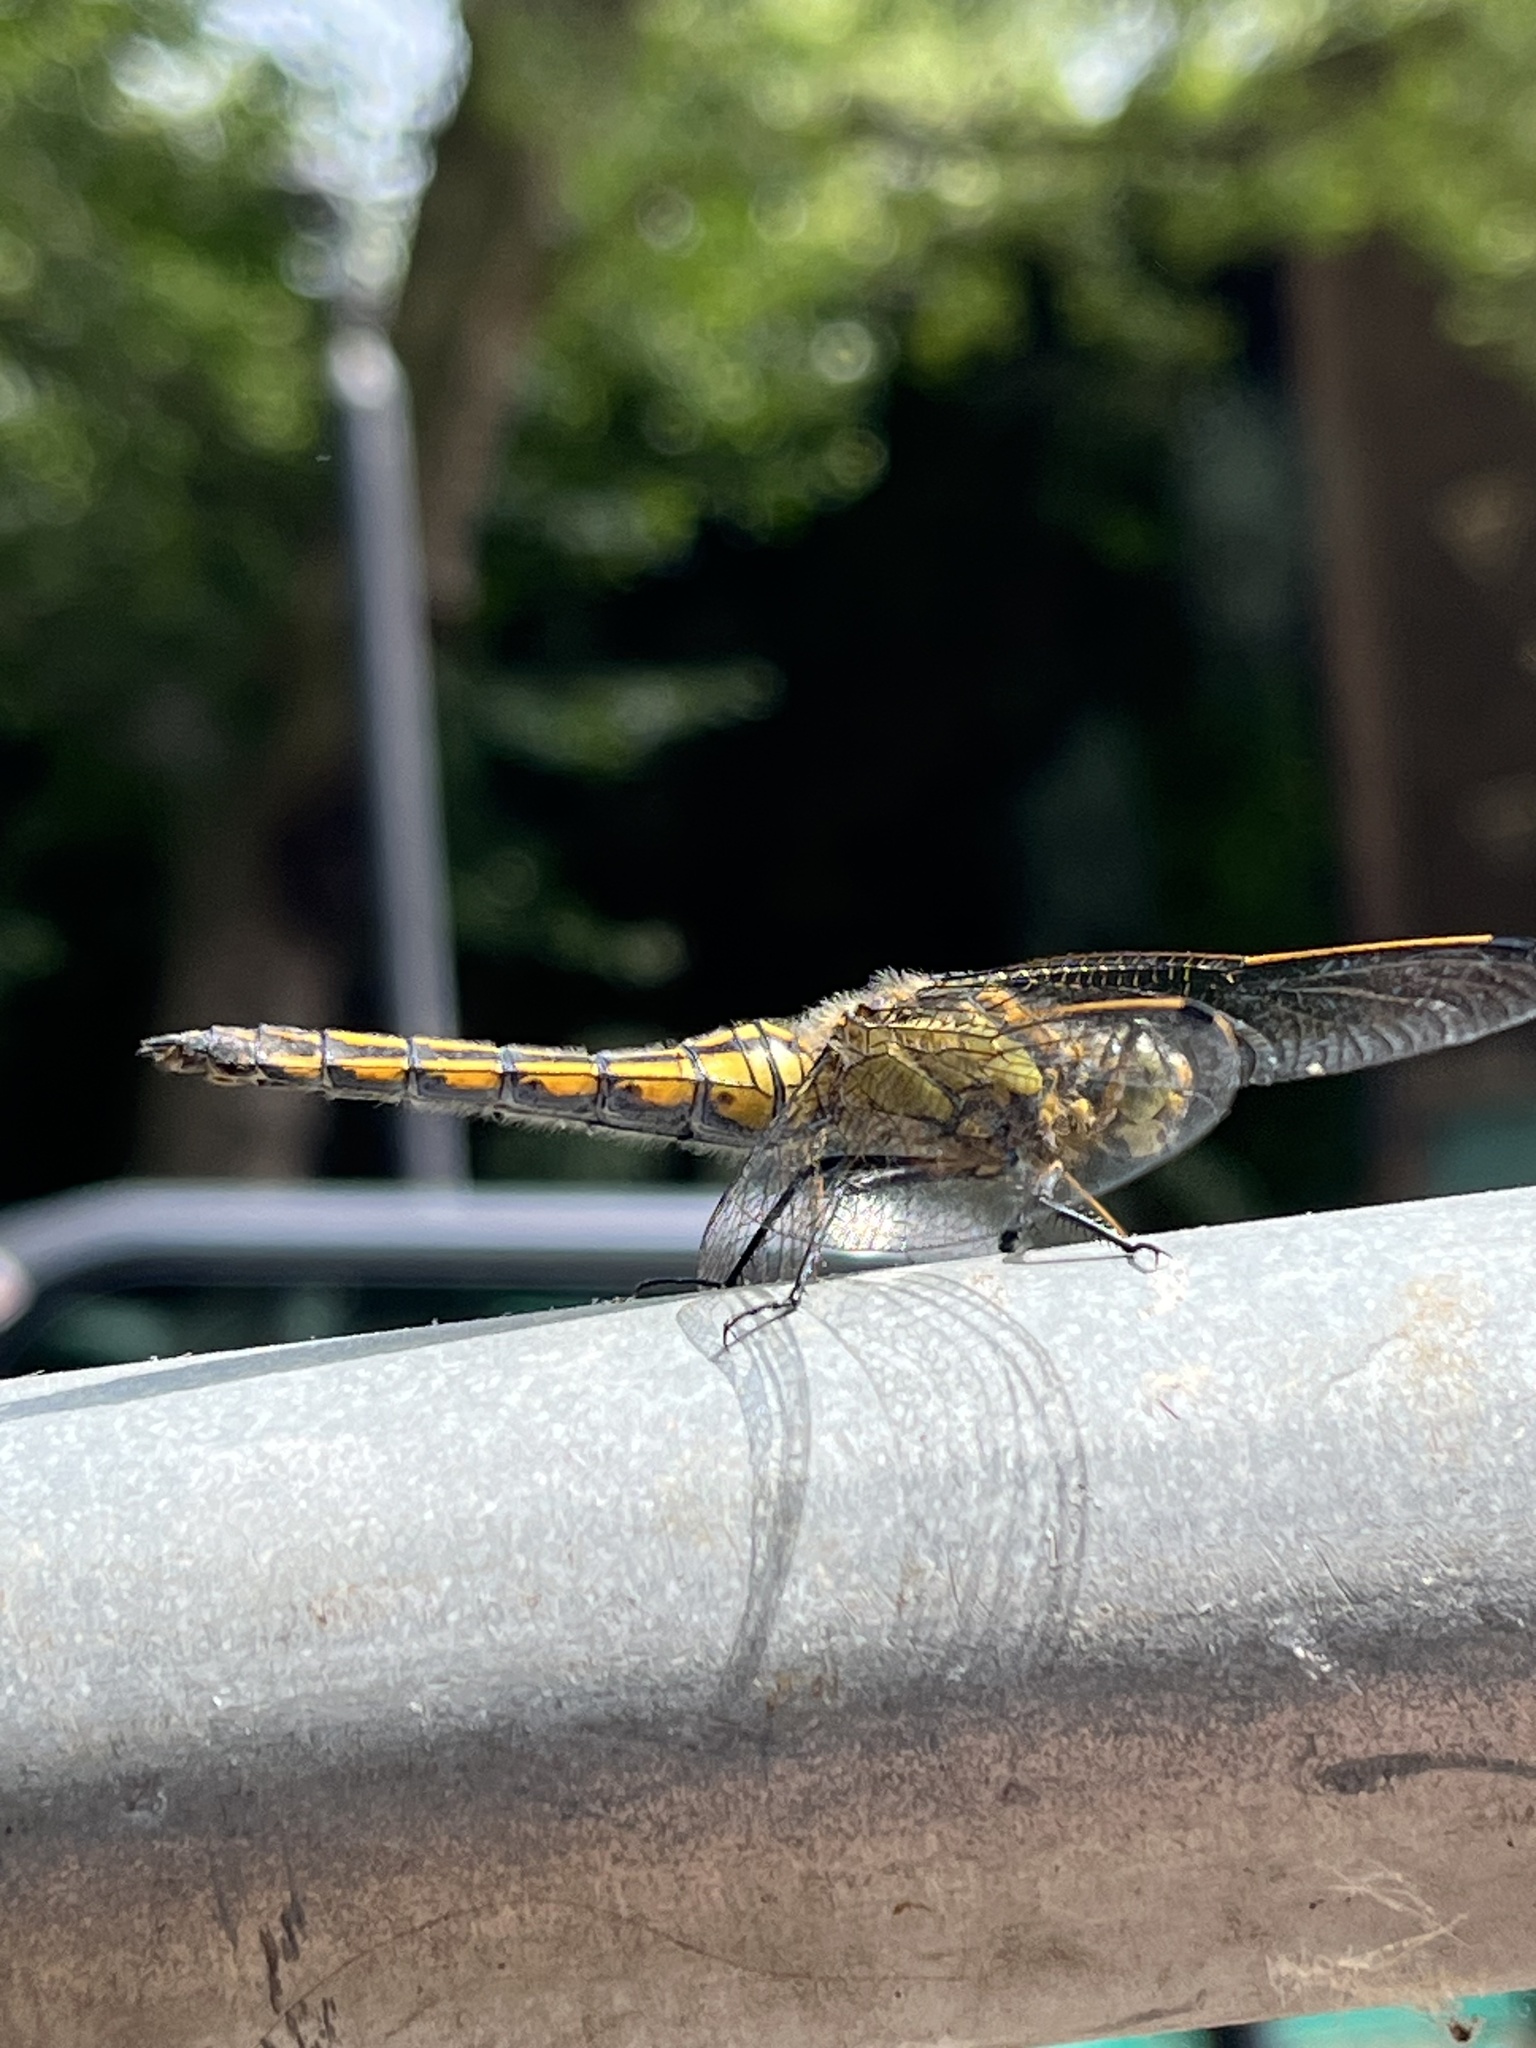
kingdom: Animalia
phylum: Arthropoda
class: Insecta
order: Odonata
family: Libellulidae
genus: Orthetrum
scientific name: Orthetrum cancellatum
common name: Black-tailed skimmer
